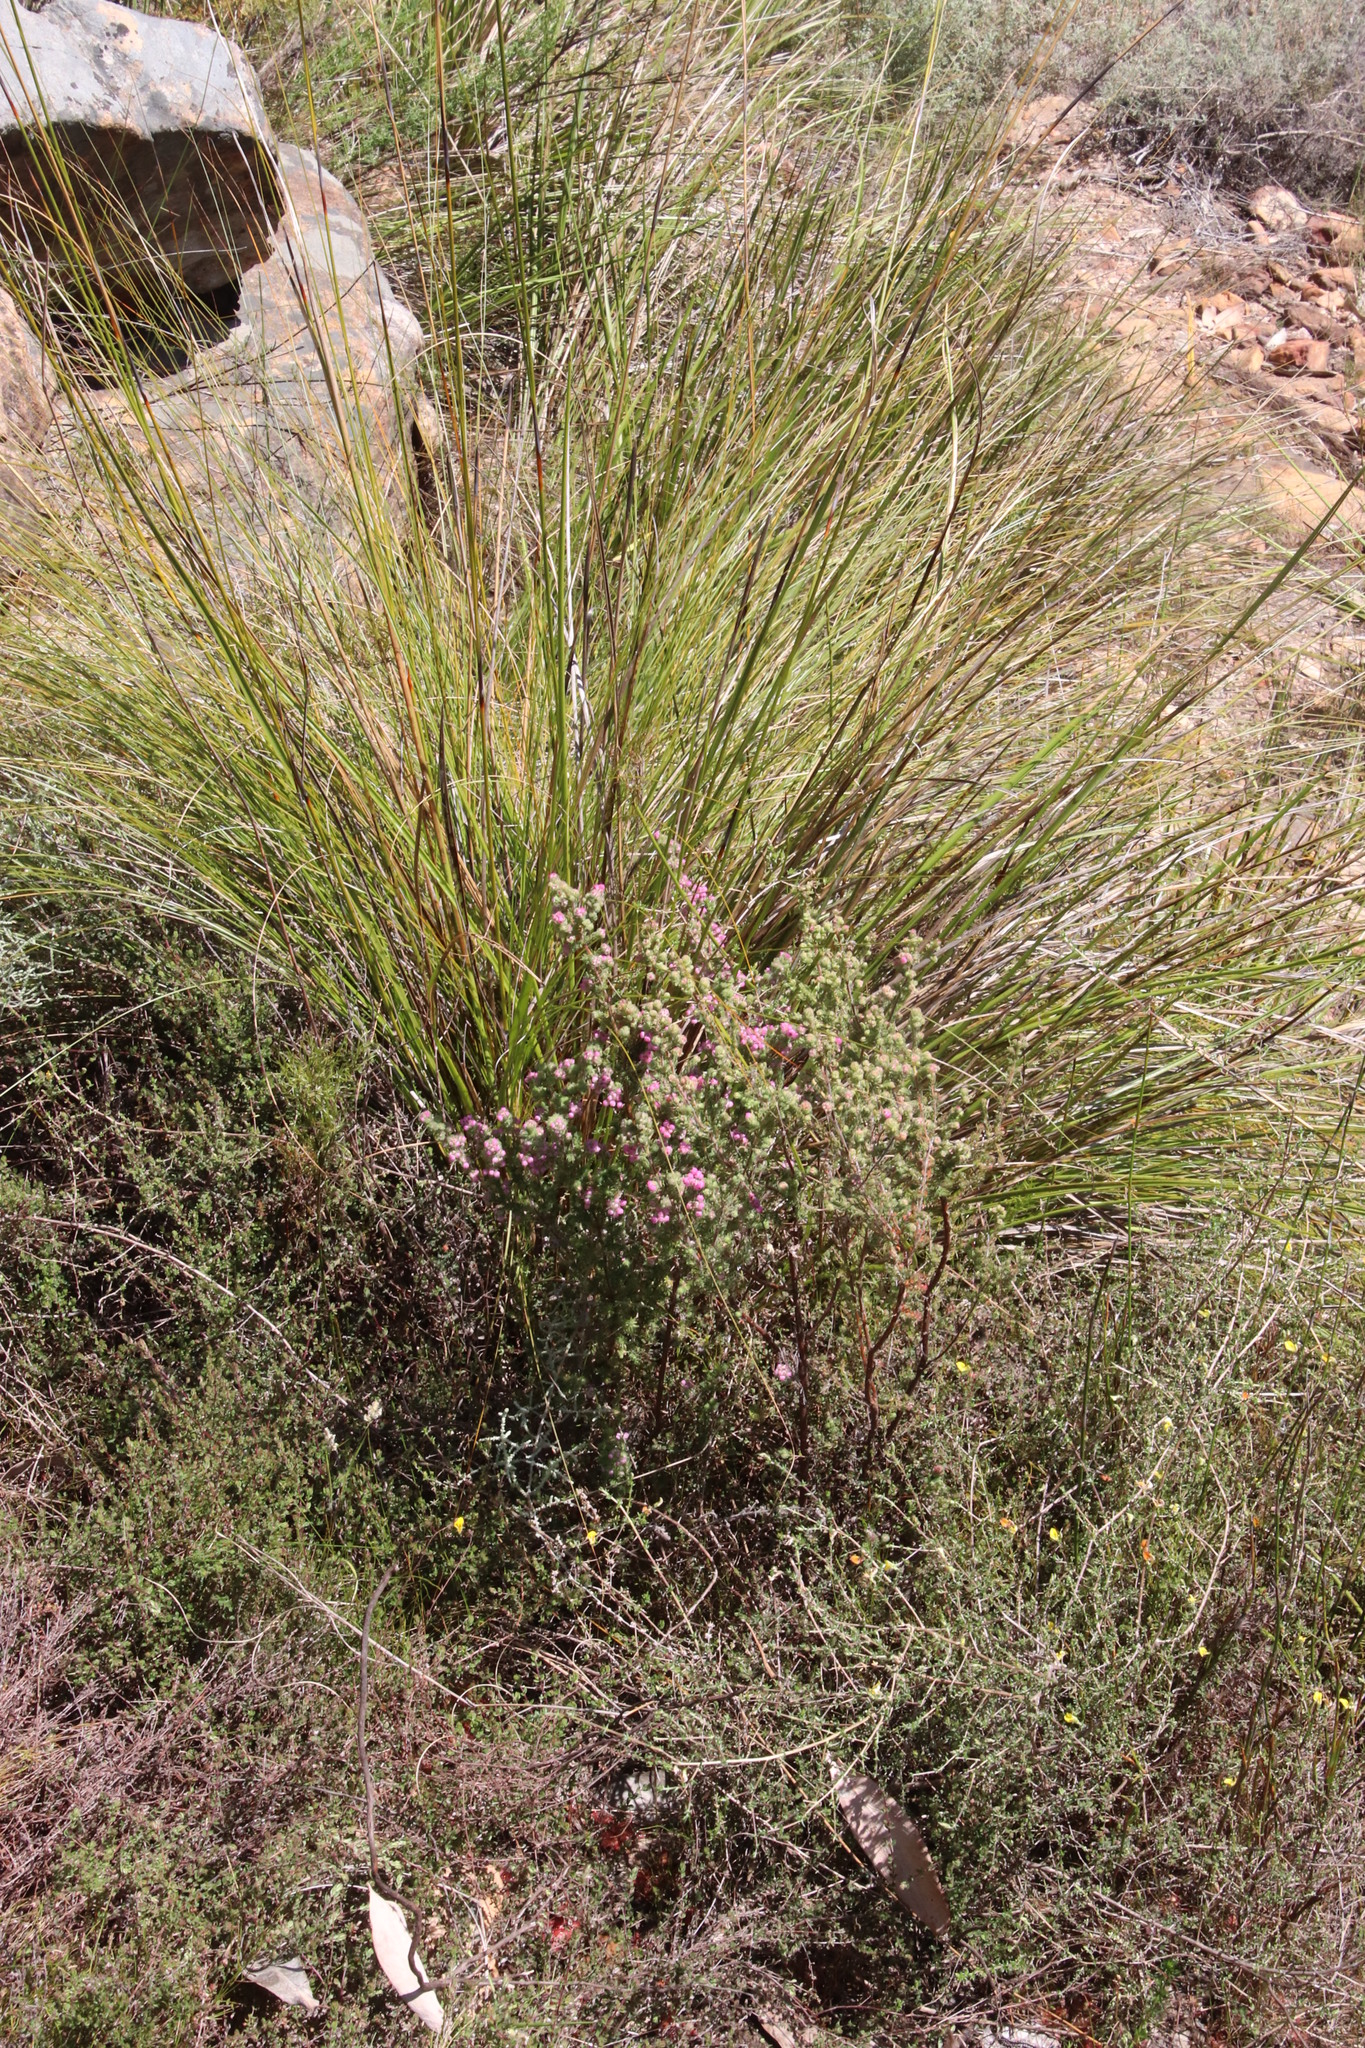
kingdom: Plantae
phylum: Tracheophyta
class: Magnoliopsida
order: Ericales
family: Ericaceae
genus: Erica
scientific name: Erica bergiana
